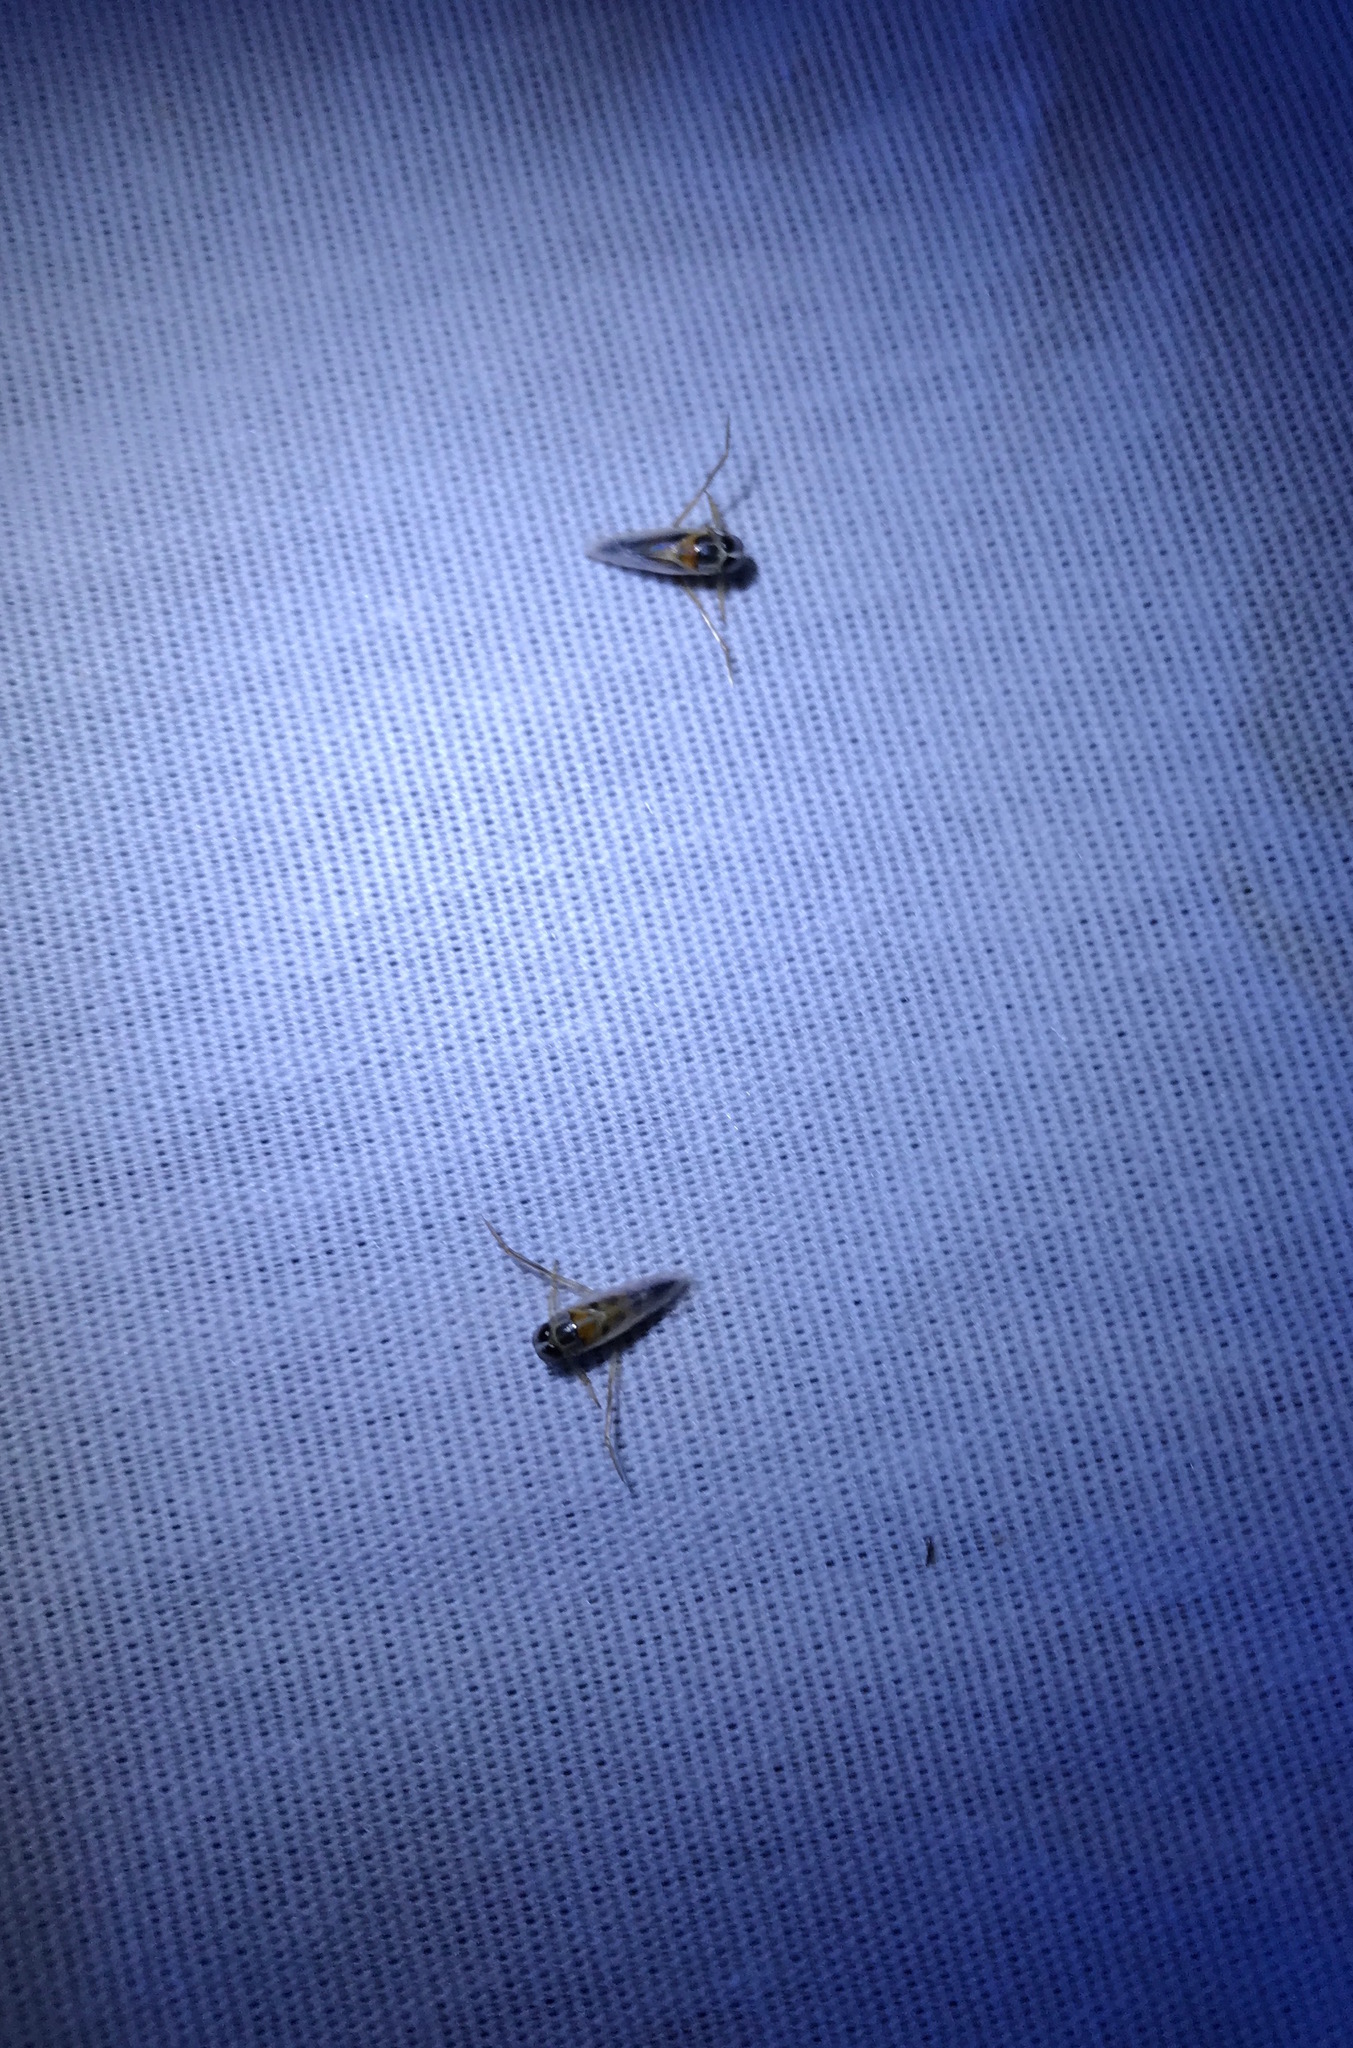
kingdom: Animalia
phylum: Arthropoda
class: Insecta
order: Hemiptera
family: Notonectidae
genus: Buenoa
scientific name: Buenoa
